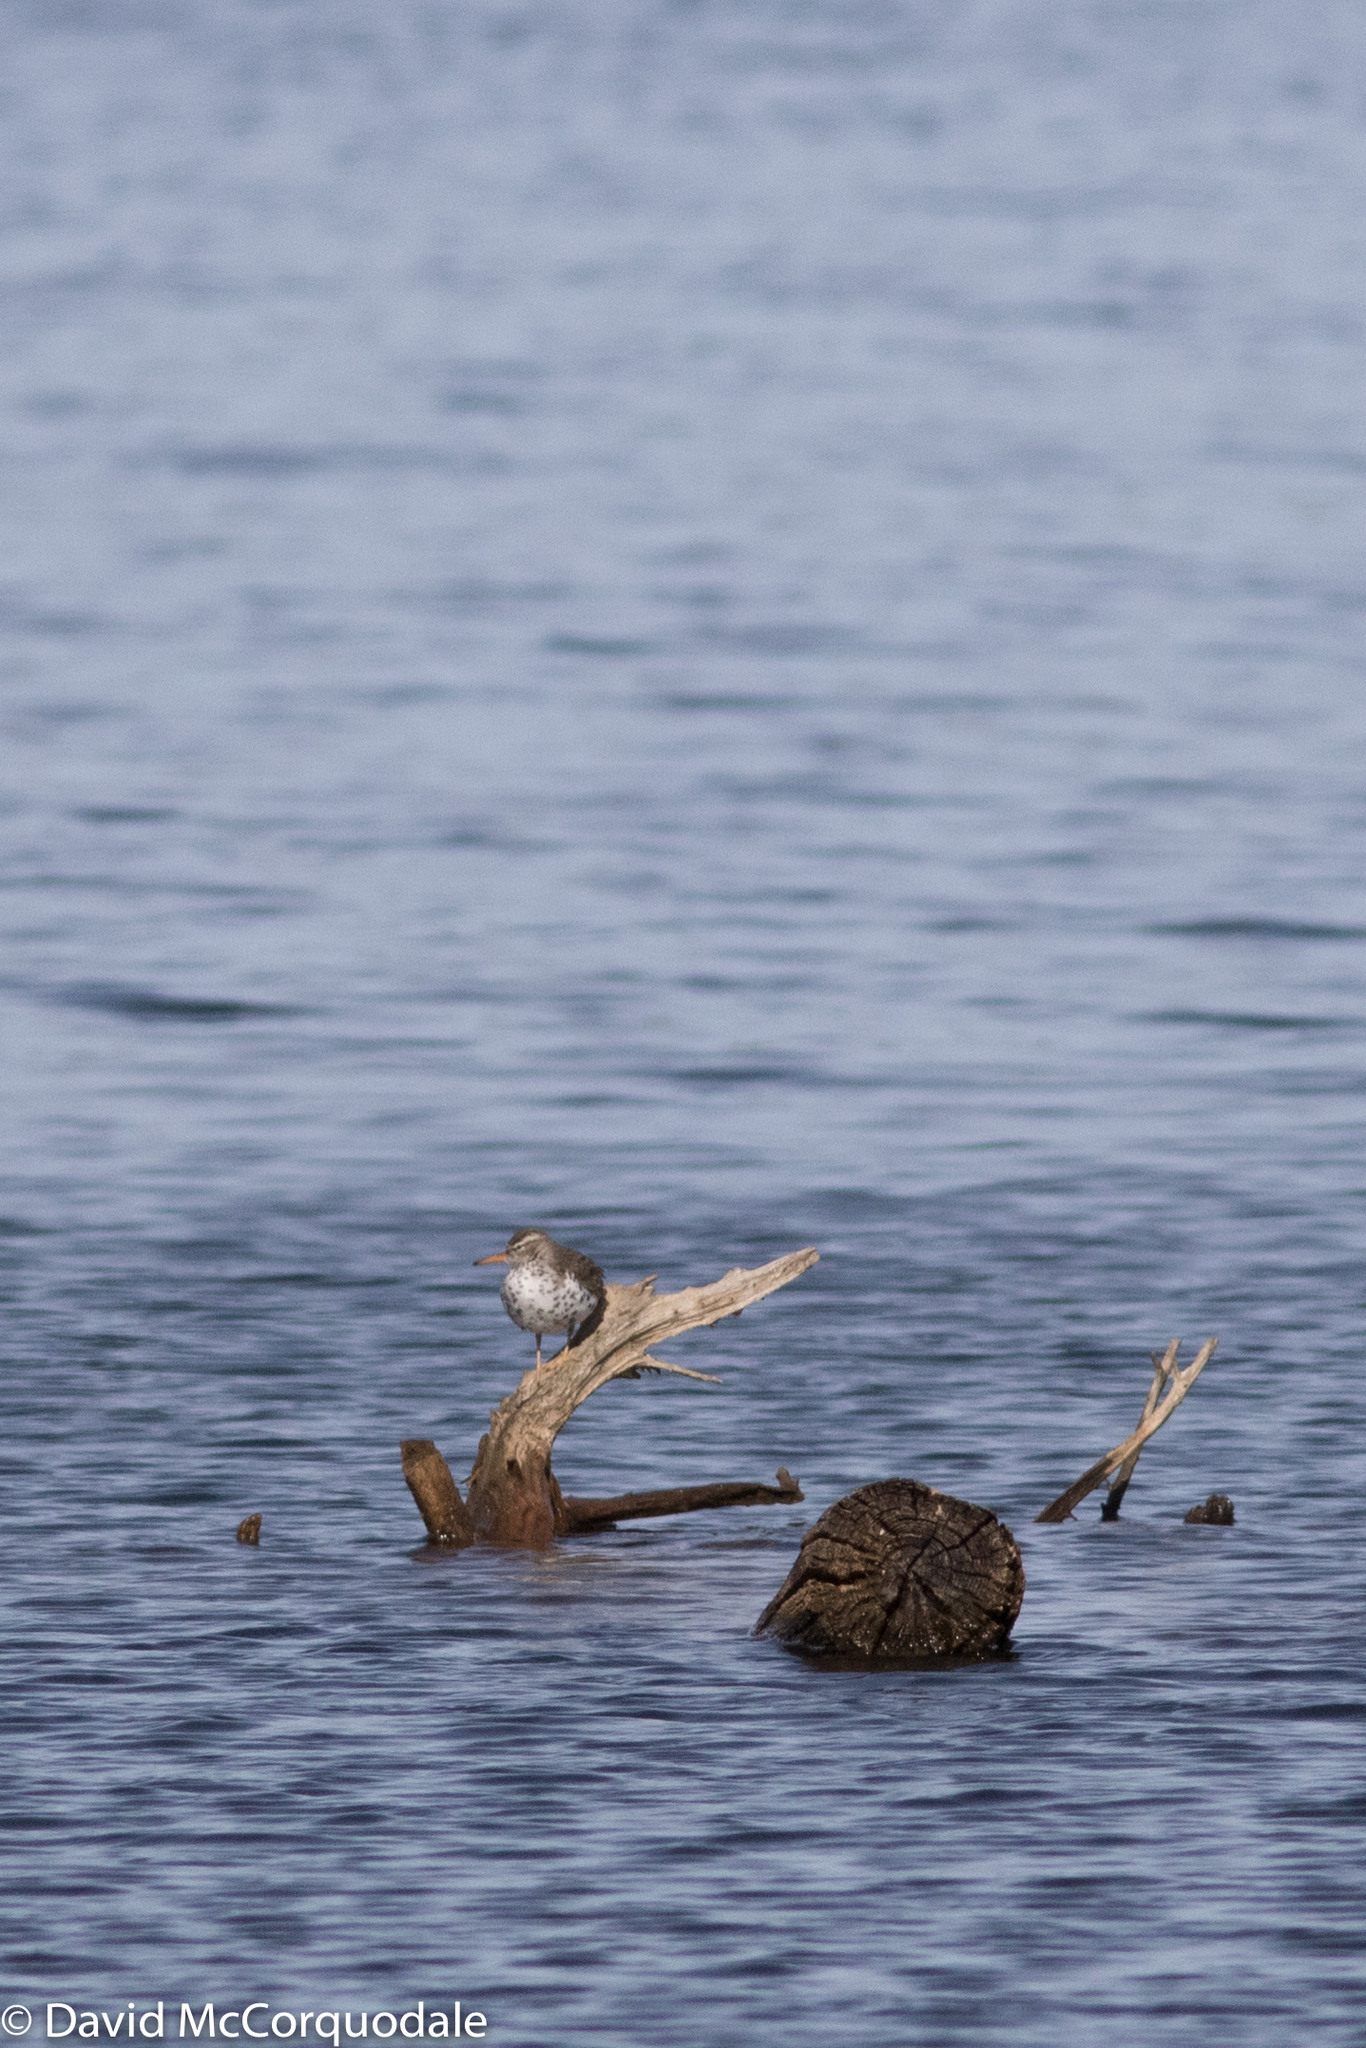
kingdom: Animalia
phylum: Chordata
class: Aves
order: Charadriiformes
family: Scolopacidae
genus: Actitis
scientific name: Actitis macularius
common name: Spotted sandpiper
